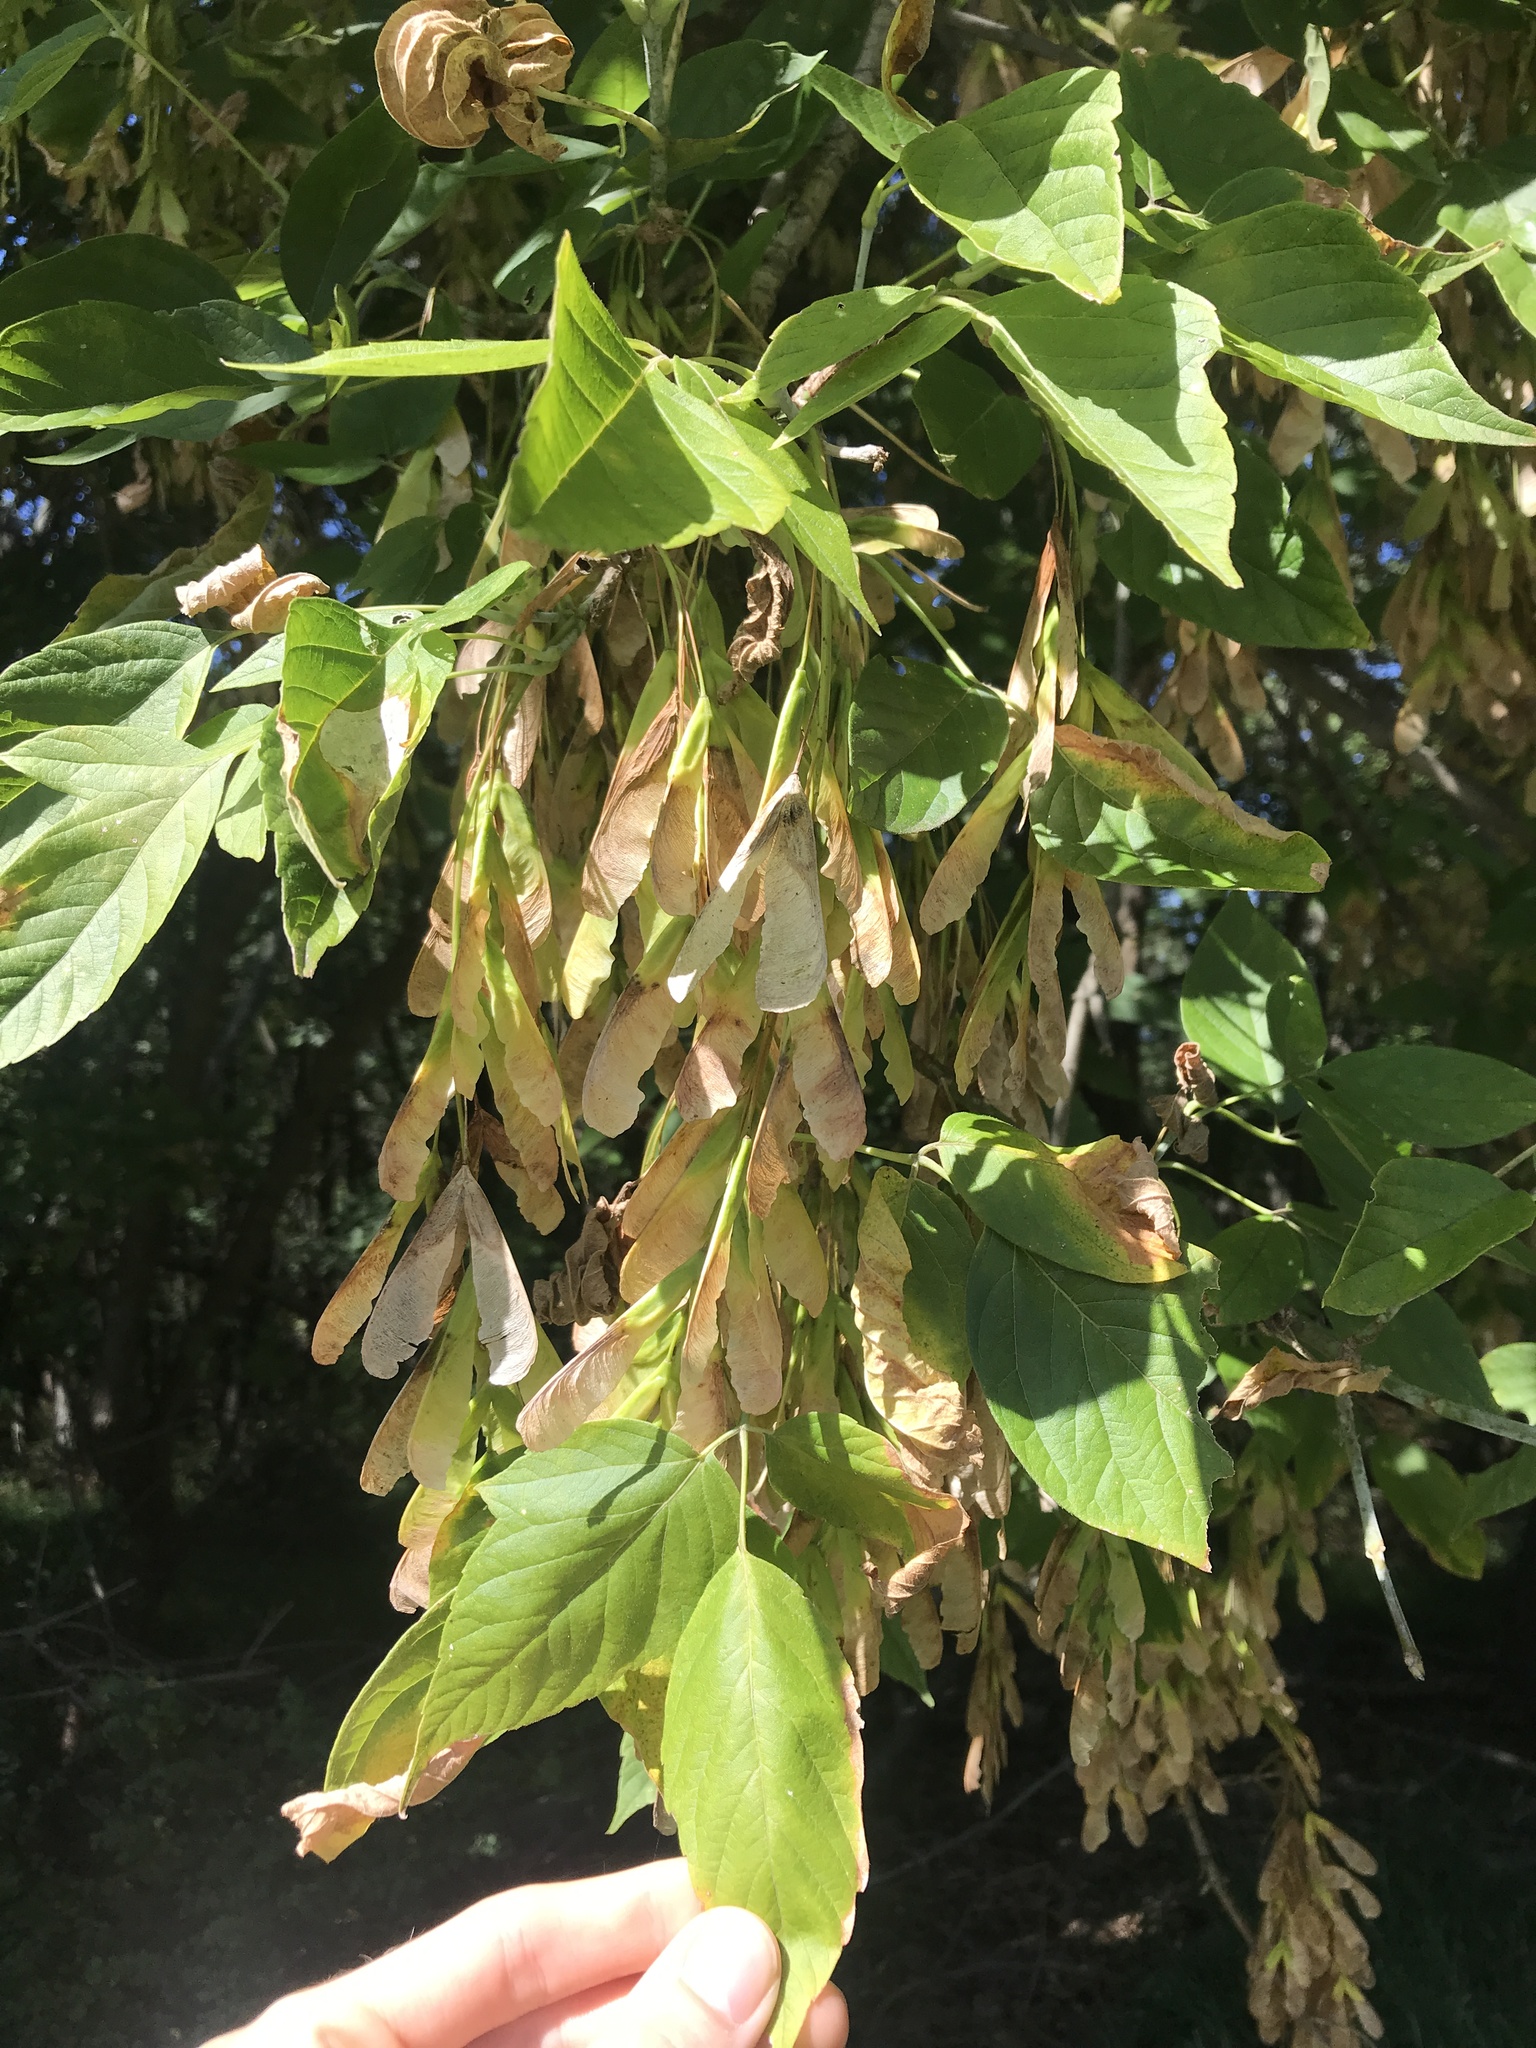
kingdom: Plantae
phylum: Tracheophyta
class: Magnoliopsida
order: Sapindales
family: Sapindaceae
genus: Acer
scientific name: Acer negundo
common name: Ashleaf maple
